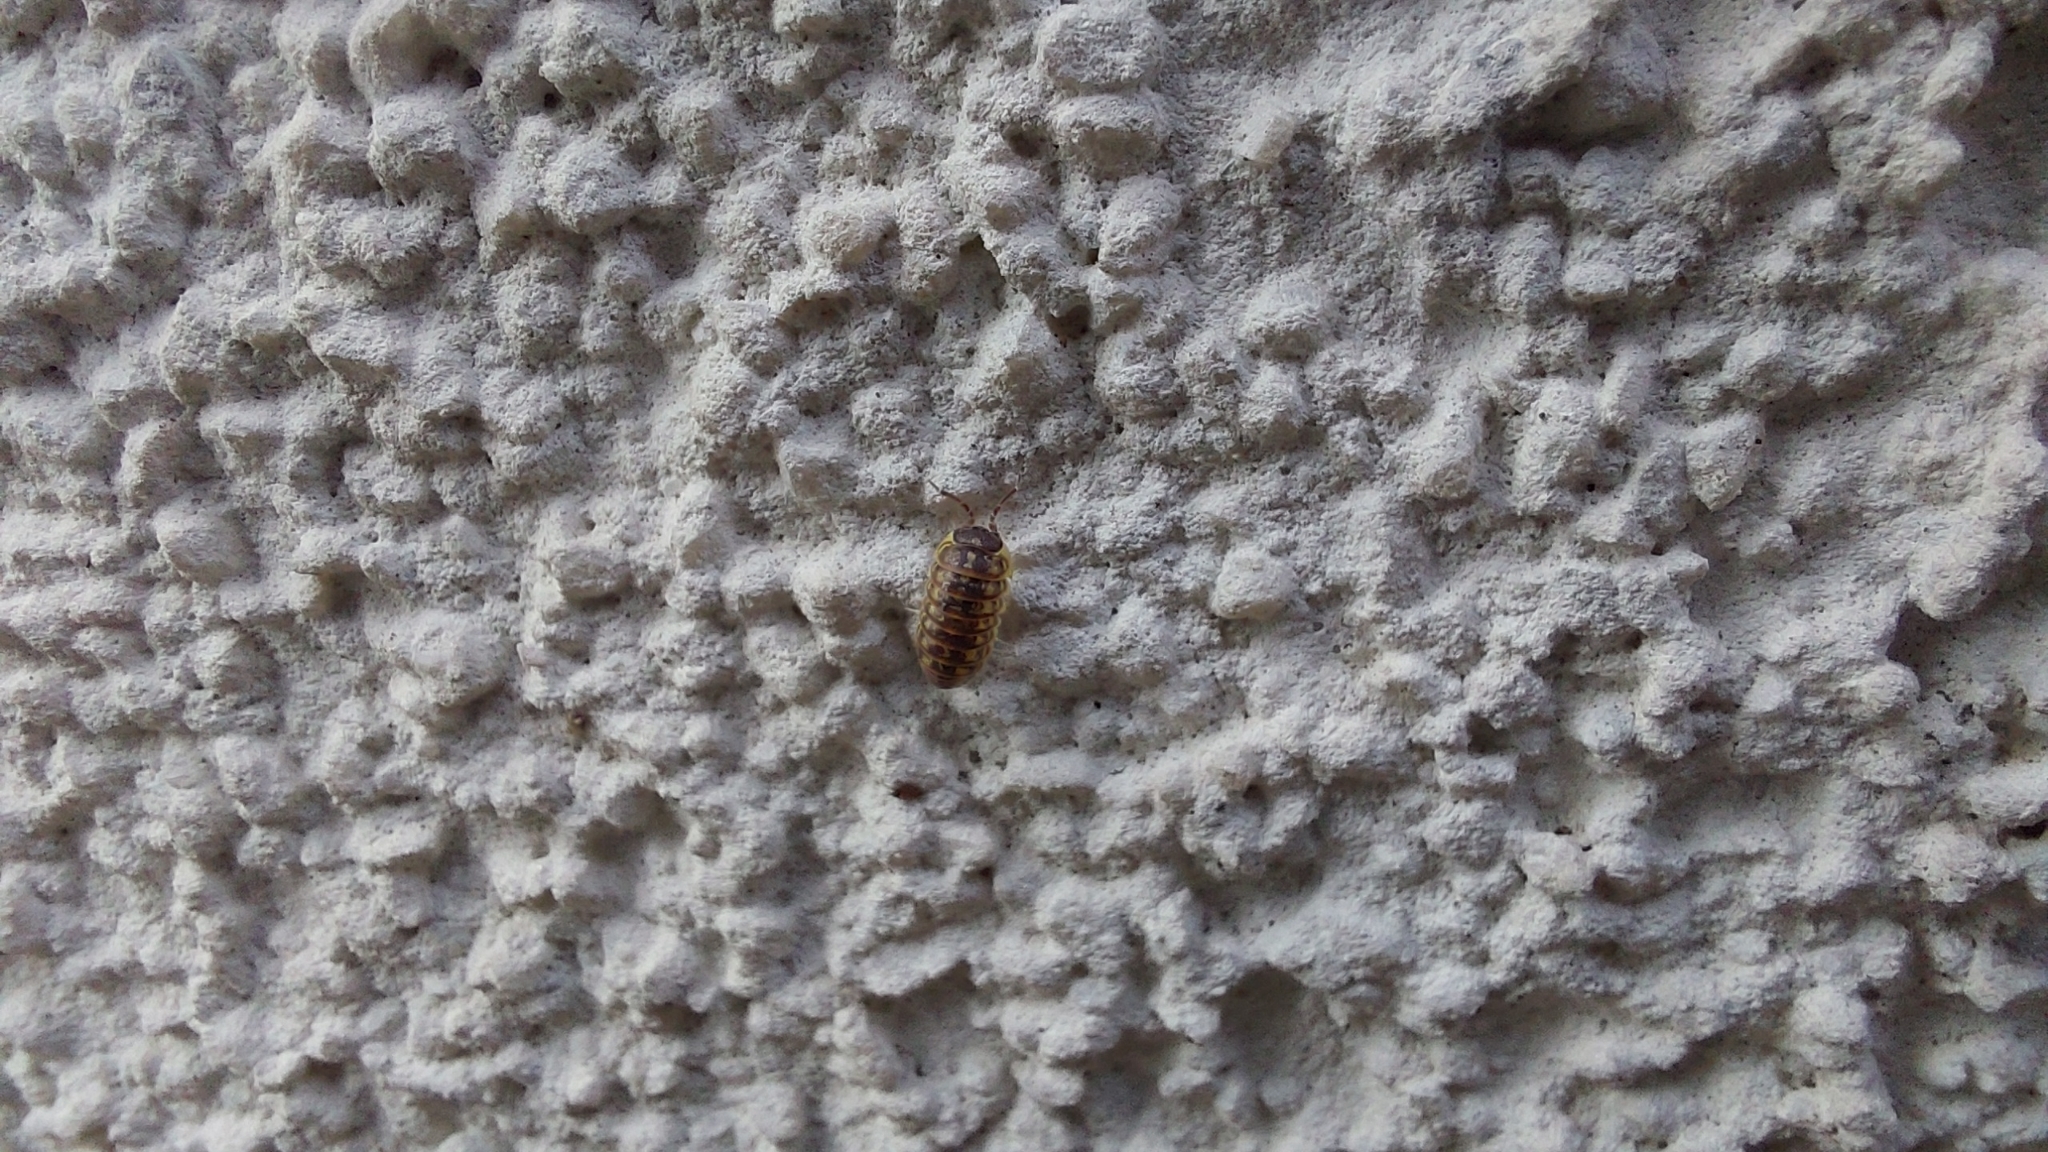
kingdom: Animalia
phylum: Arthropoda
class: Malacostraca
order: Isopoda
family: Armadillidiidae
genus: Armadillidium
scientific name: Armadillidium versicolor
